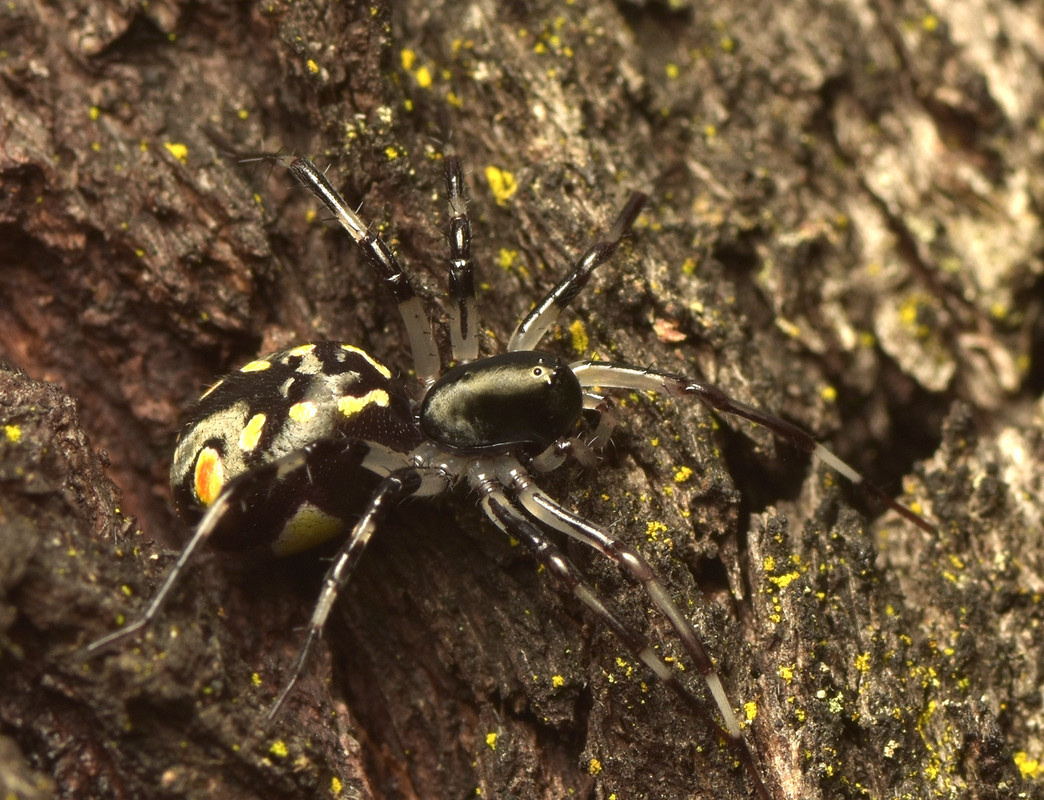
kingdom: Animalia
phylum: Arthropoda
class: Arachnida
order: Araneae
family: Zodariidae
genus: Subasteron
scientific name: Subasteron daviesae
